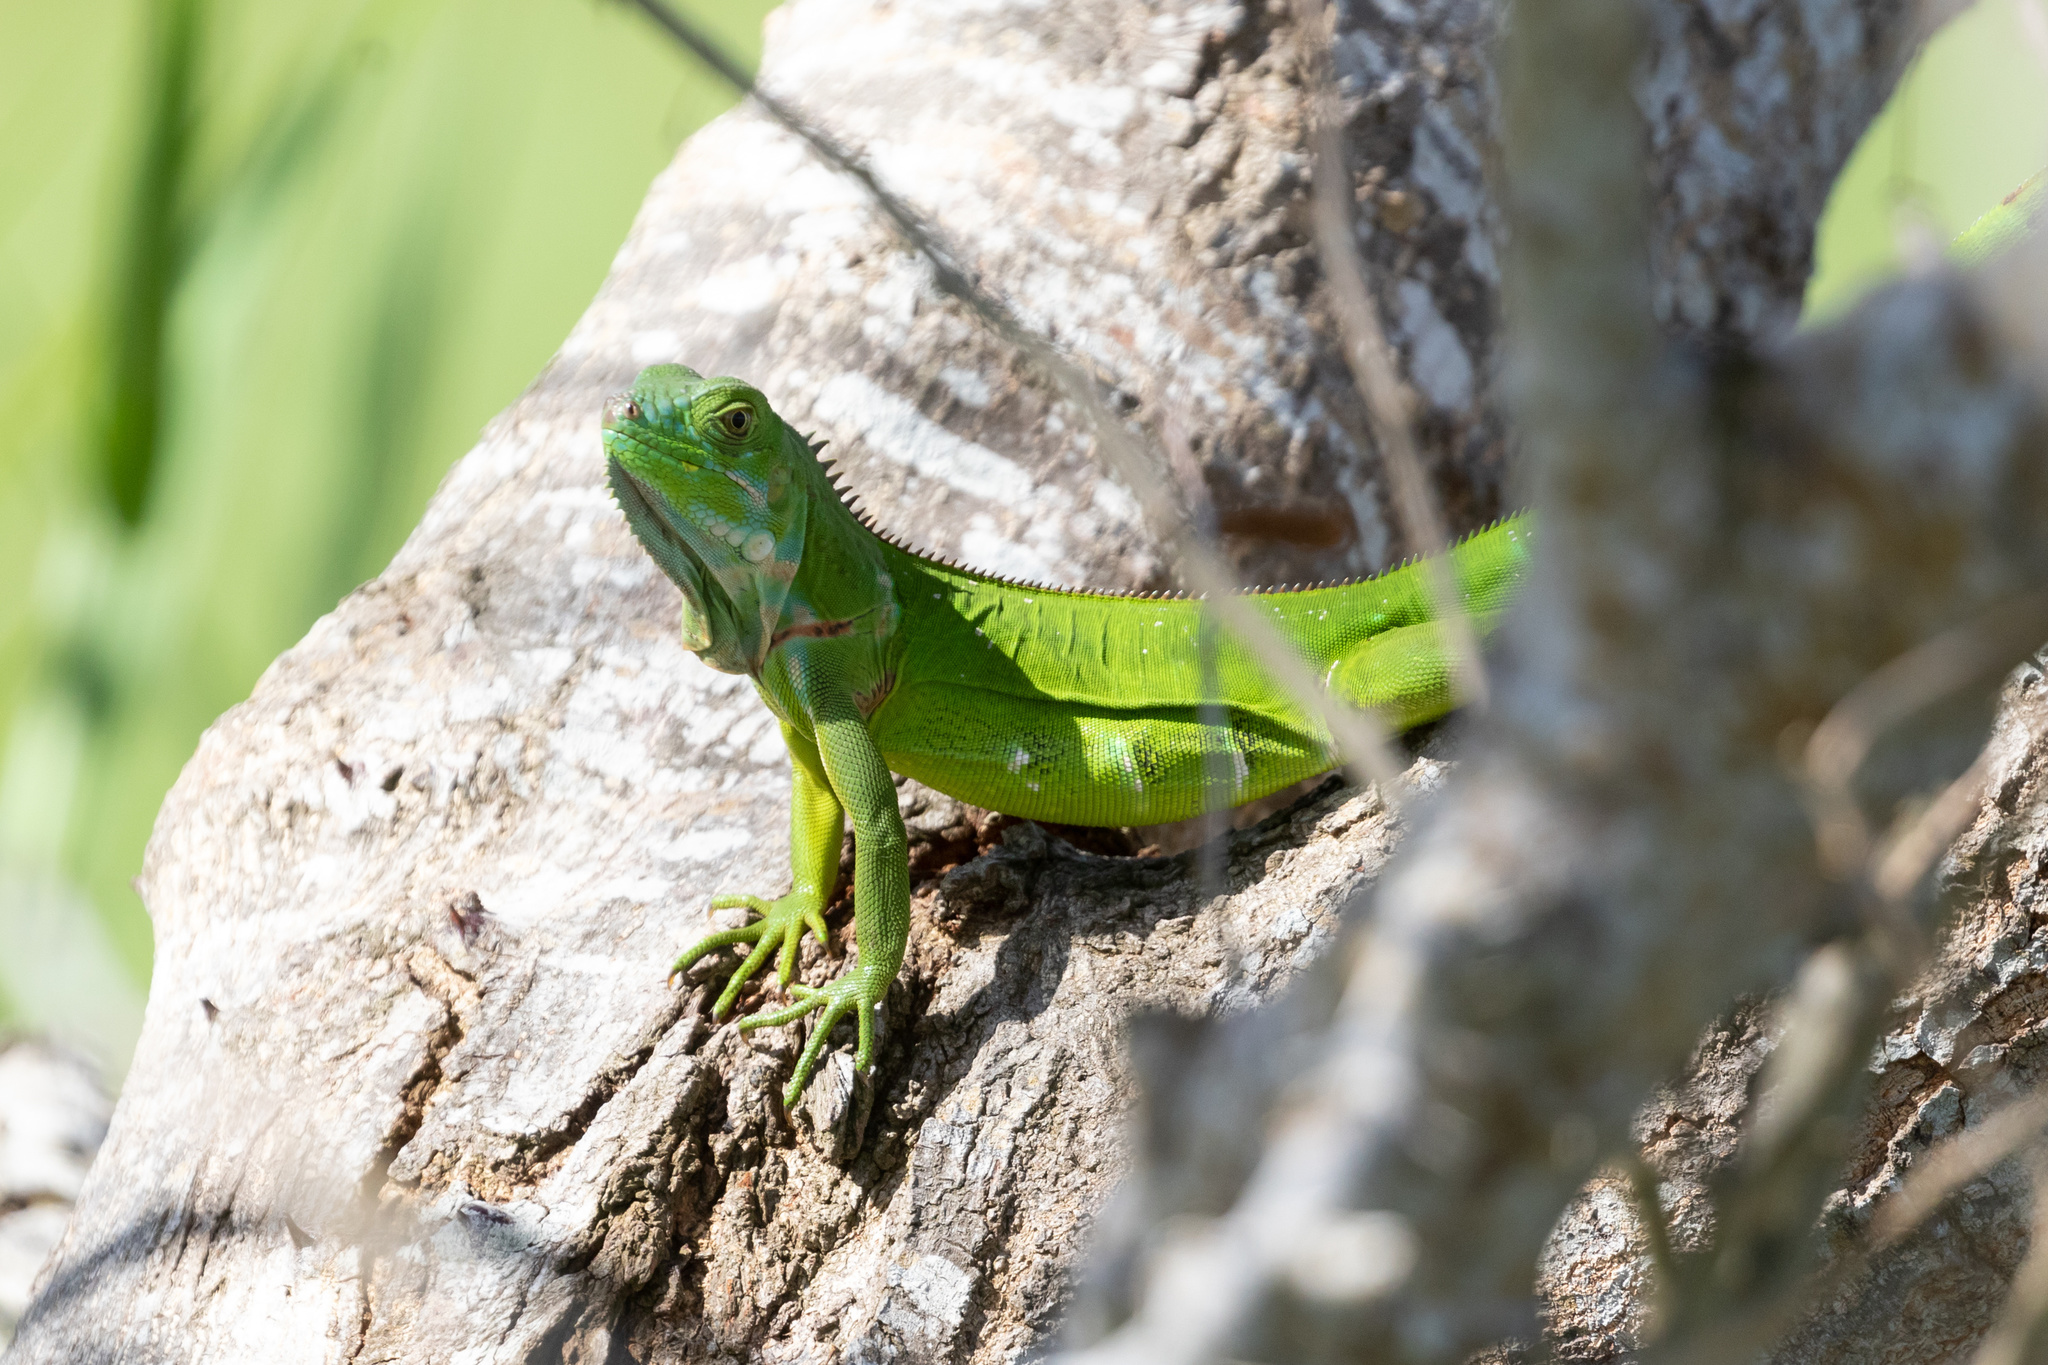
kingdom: Animalia
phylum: Chordata
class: Squamata
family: Iguanidae
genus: Iguana
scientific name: Iguana iguana
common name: Green iguana
